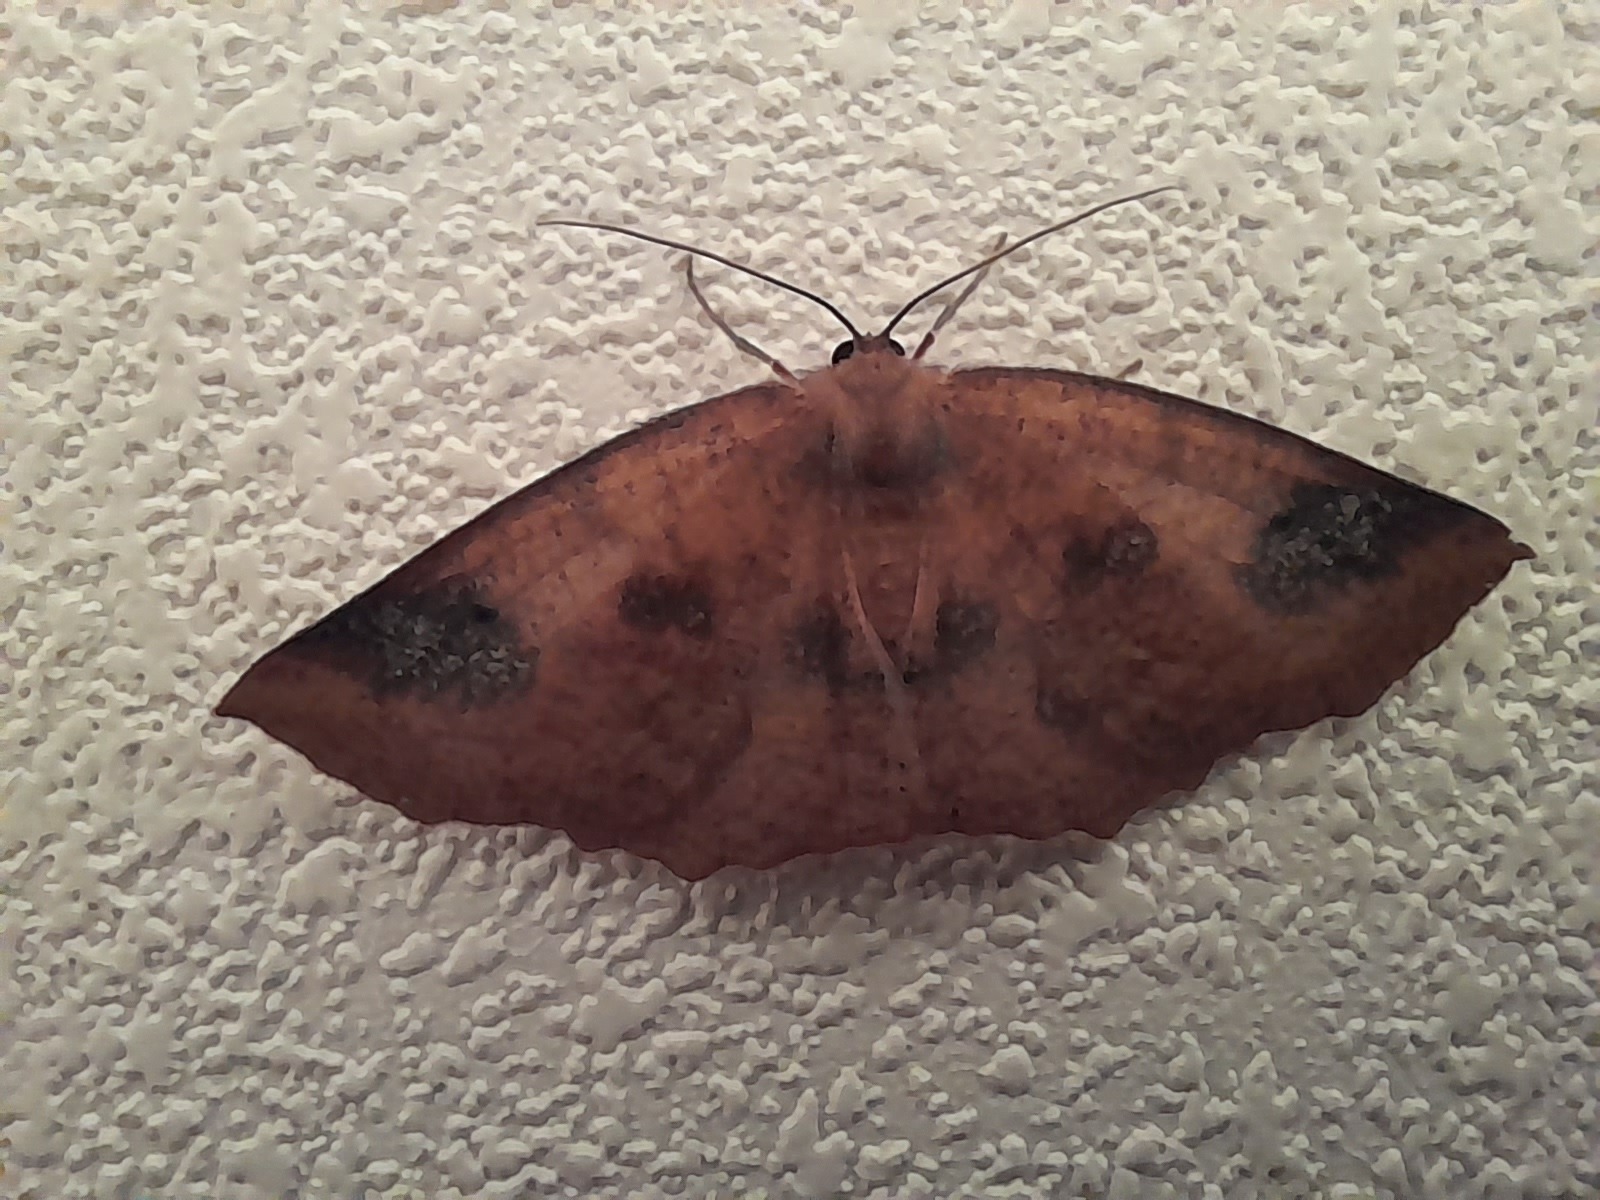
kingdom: Animalia
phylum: Arthropoda
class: Insecta
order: Lepidoptera
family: Geometridae
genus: Xyridacma
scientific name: Xyridacma ustaria
